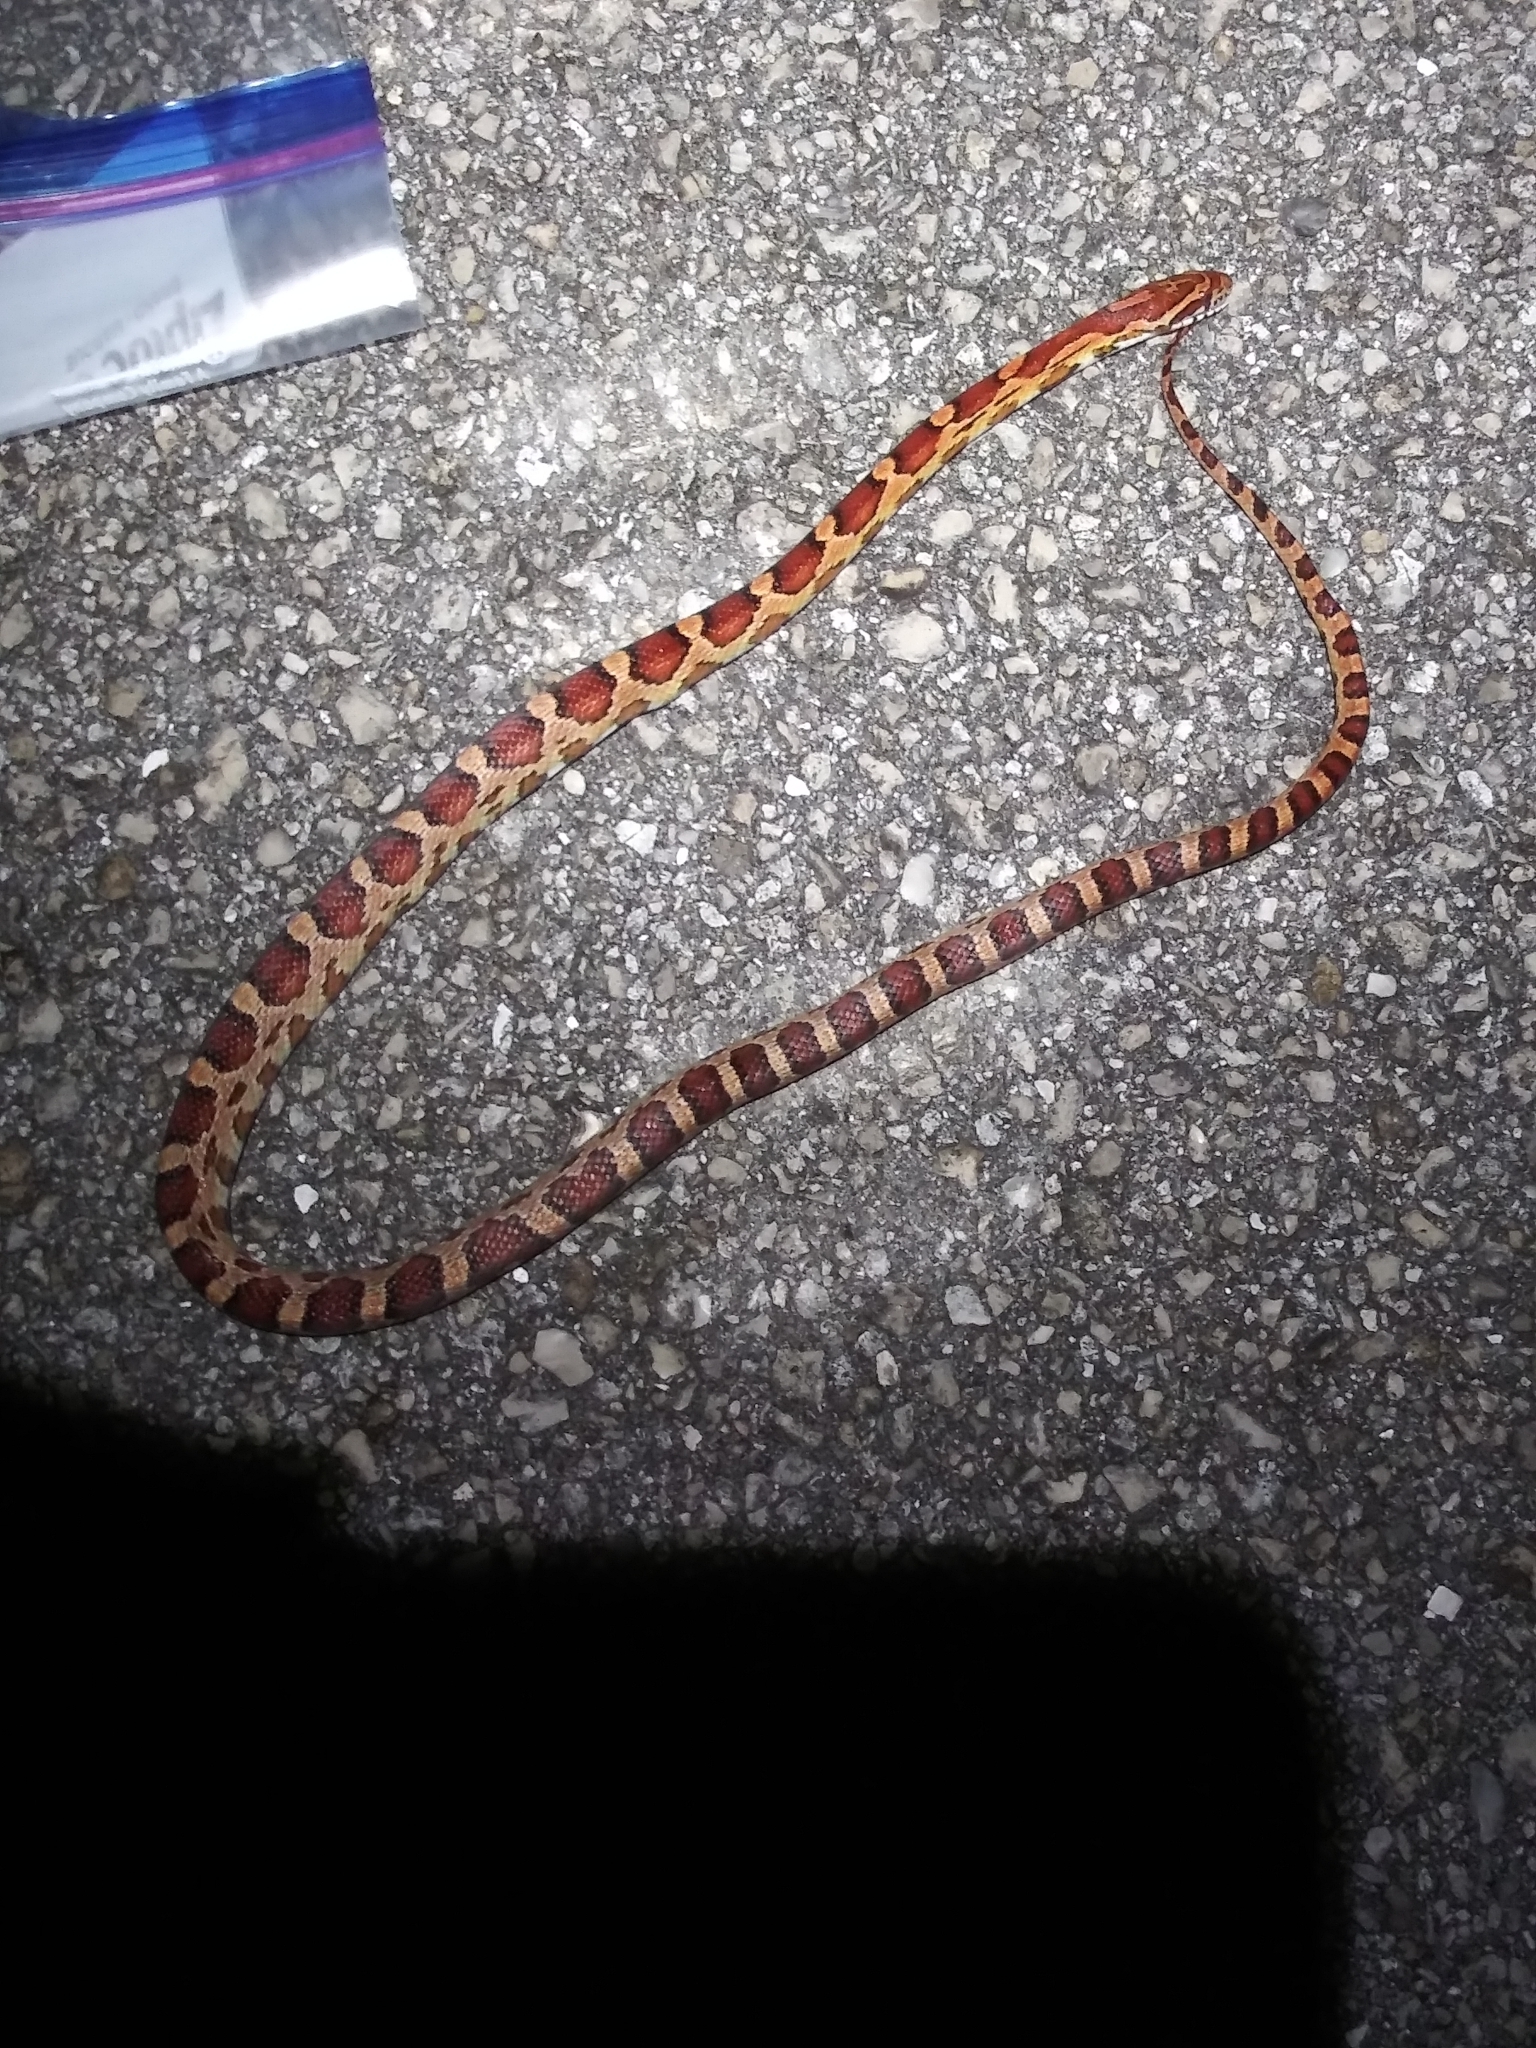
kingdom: Animalia
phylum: Chordata
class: Squamata
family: Colubridae
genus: Pantherophis
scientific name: Pantherophis guttatus
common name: Red cornsnake
